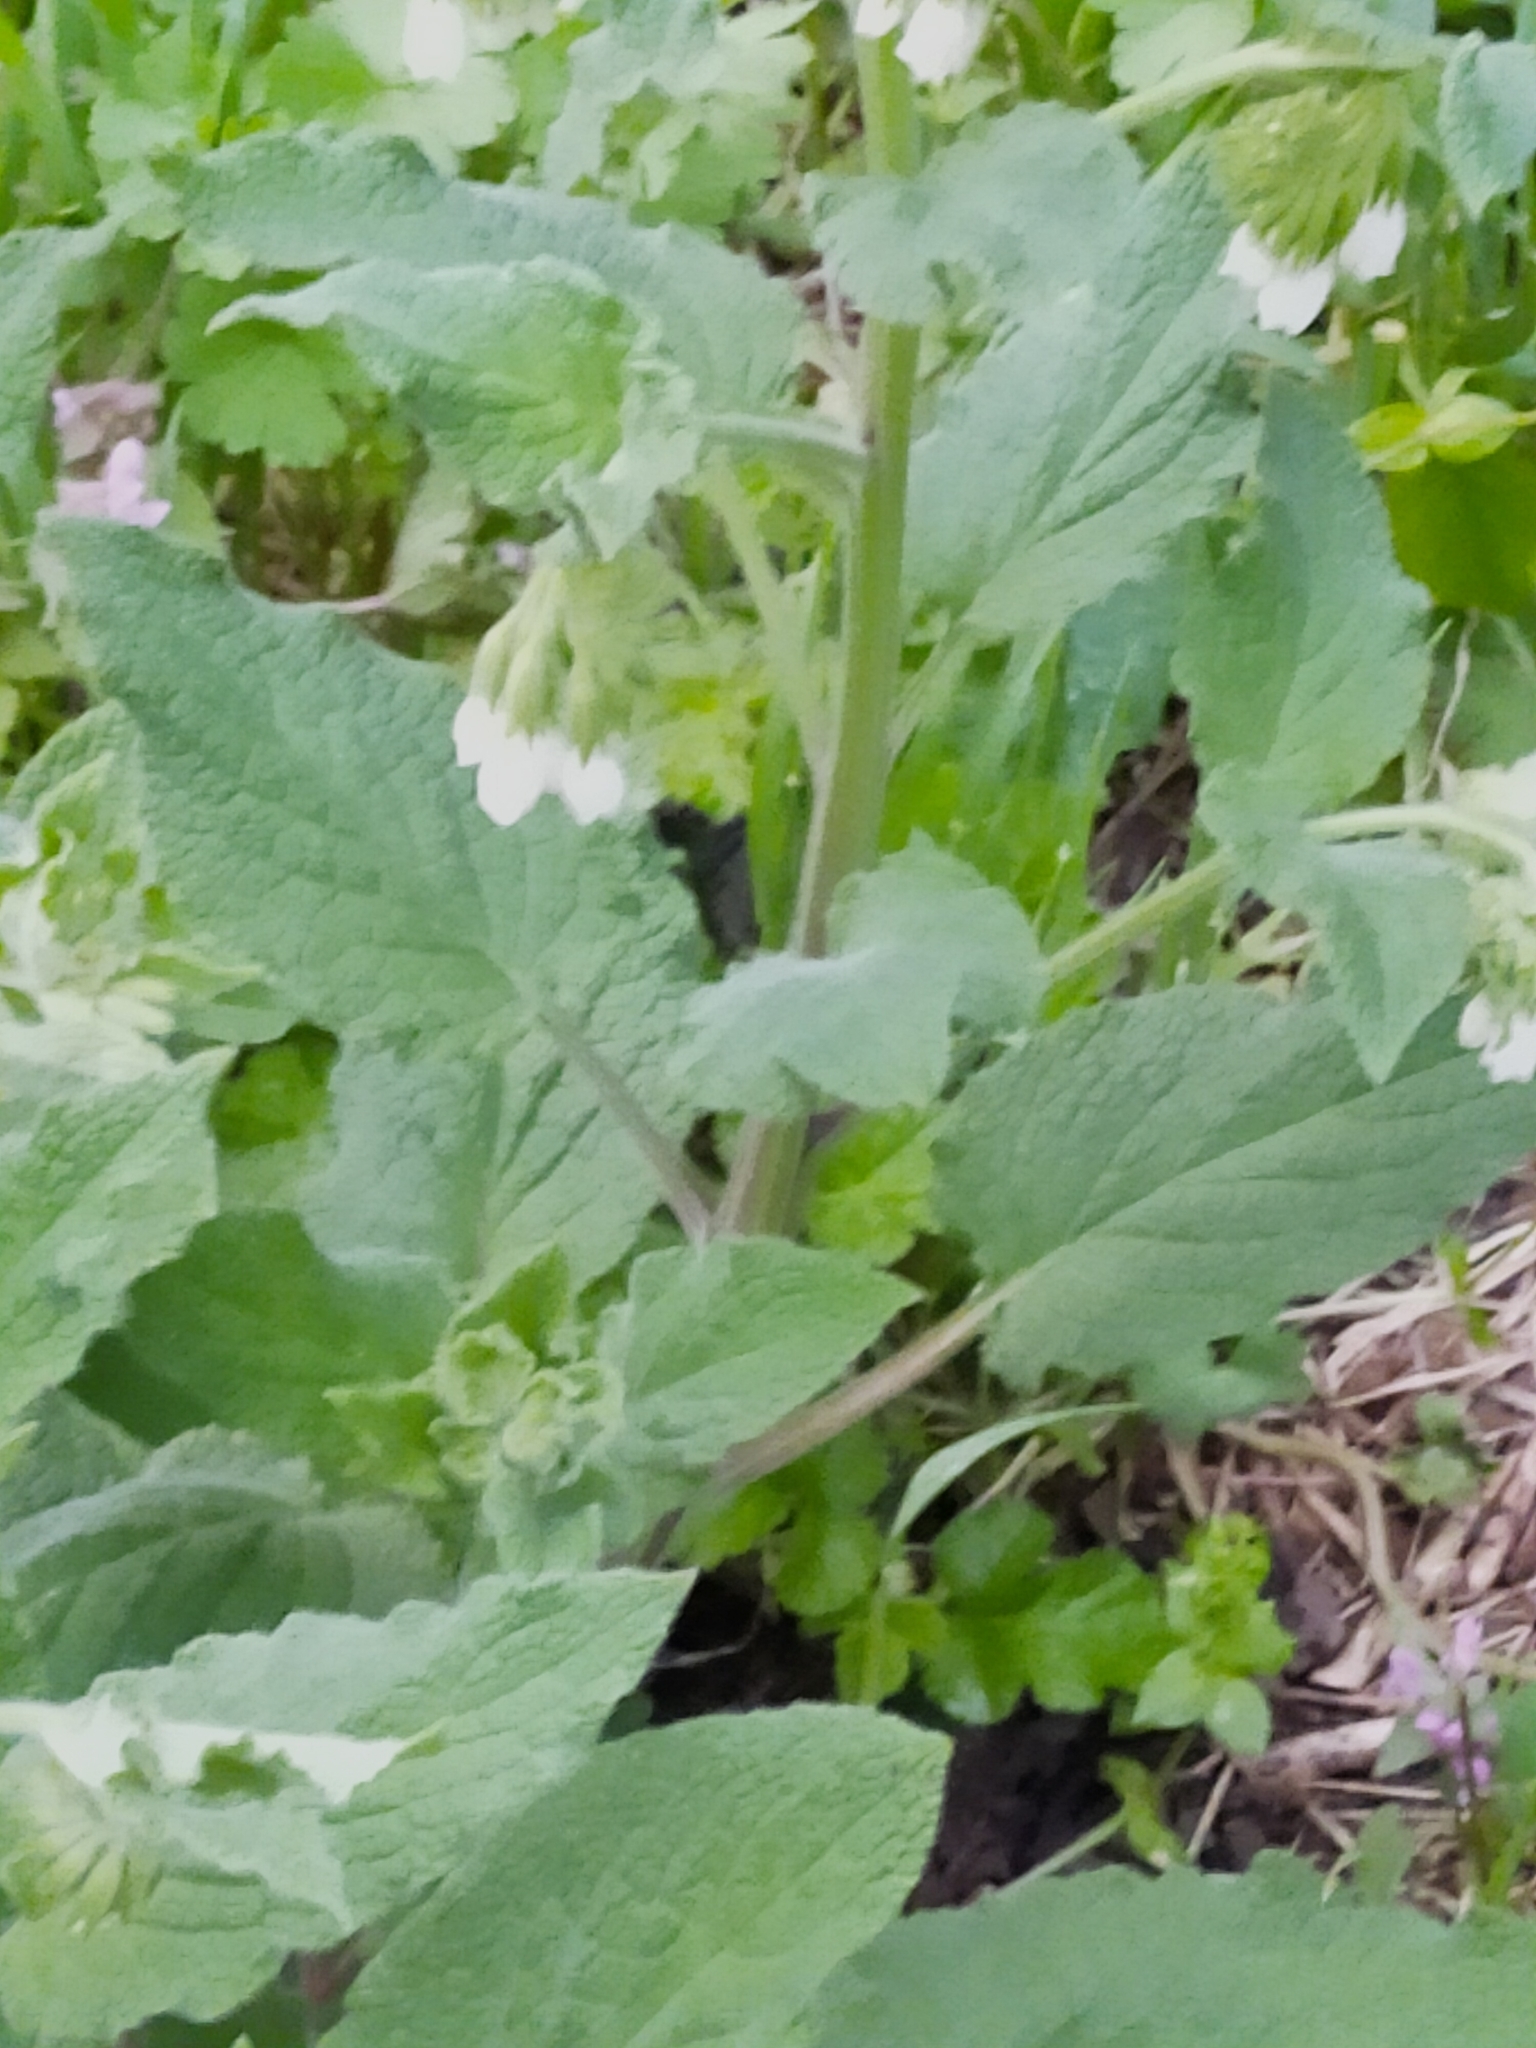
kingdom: Plantae
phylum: Tracheophyta
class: Magnoliopsida
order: Boraginales
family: Boraginaceae
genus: Symphytum
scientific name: Symphytum orientale
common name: White comfrey
